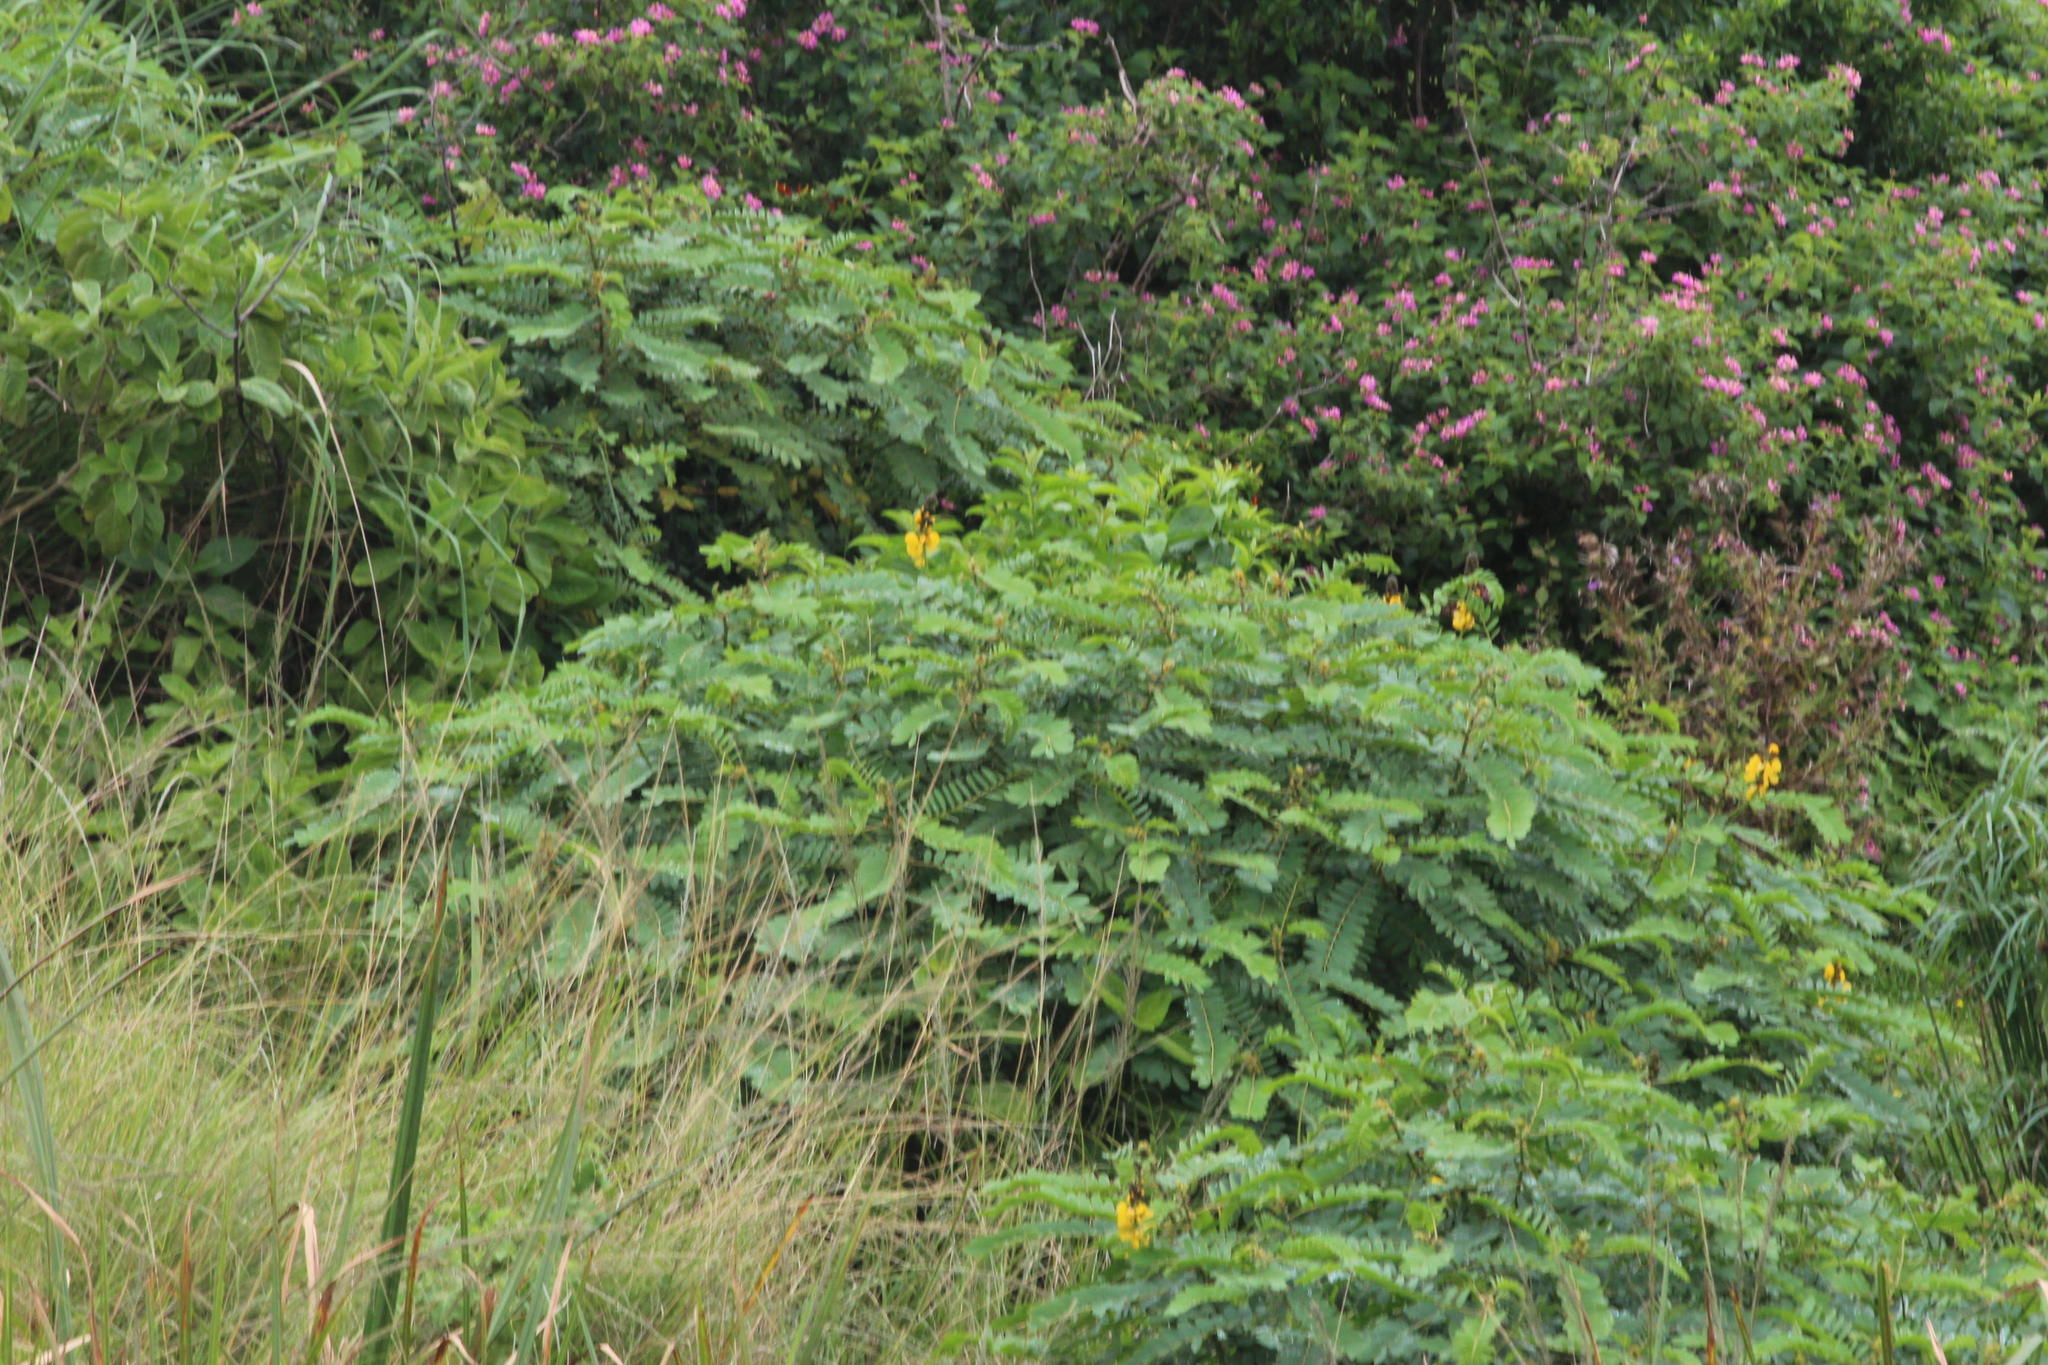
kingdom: Plantae
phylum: Tracheophyta
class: Magnoliopsida
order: Fabales
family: Fabaceae
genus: Senna
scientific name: Senna didymobotrya
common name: African senna
